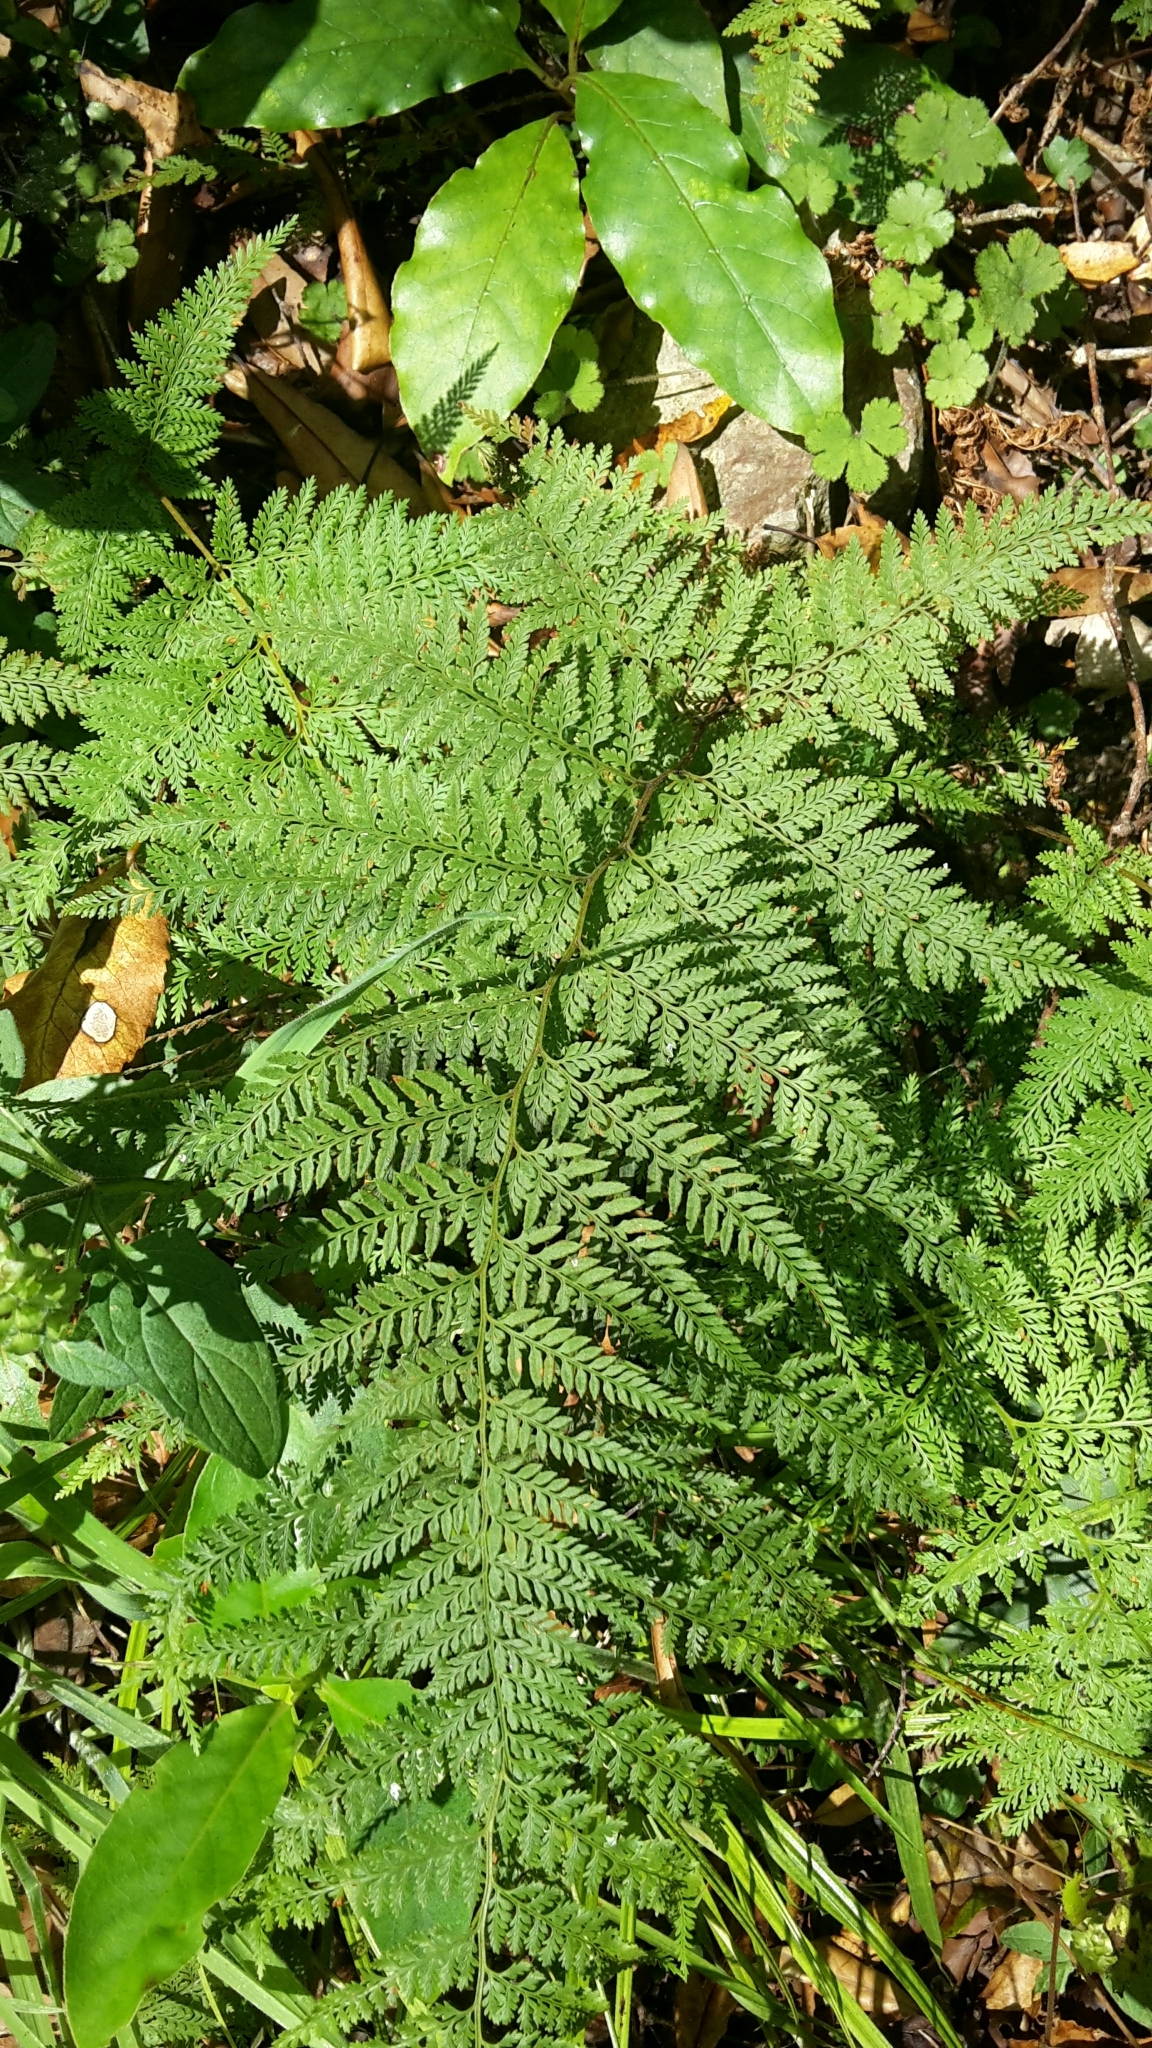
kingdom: Plantae
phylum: Tracheophyta
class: Polypodiopsida
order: Polypodiales
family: Dennstaedtiaceae
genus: Paesia
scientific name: Paesia scaberula
